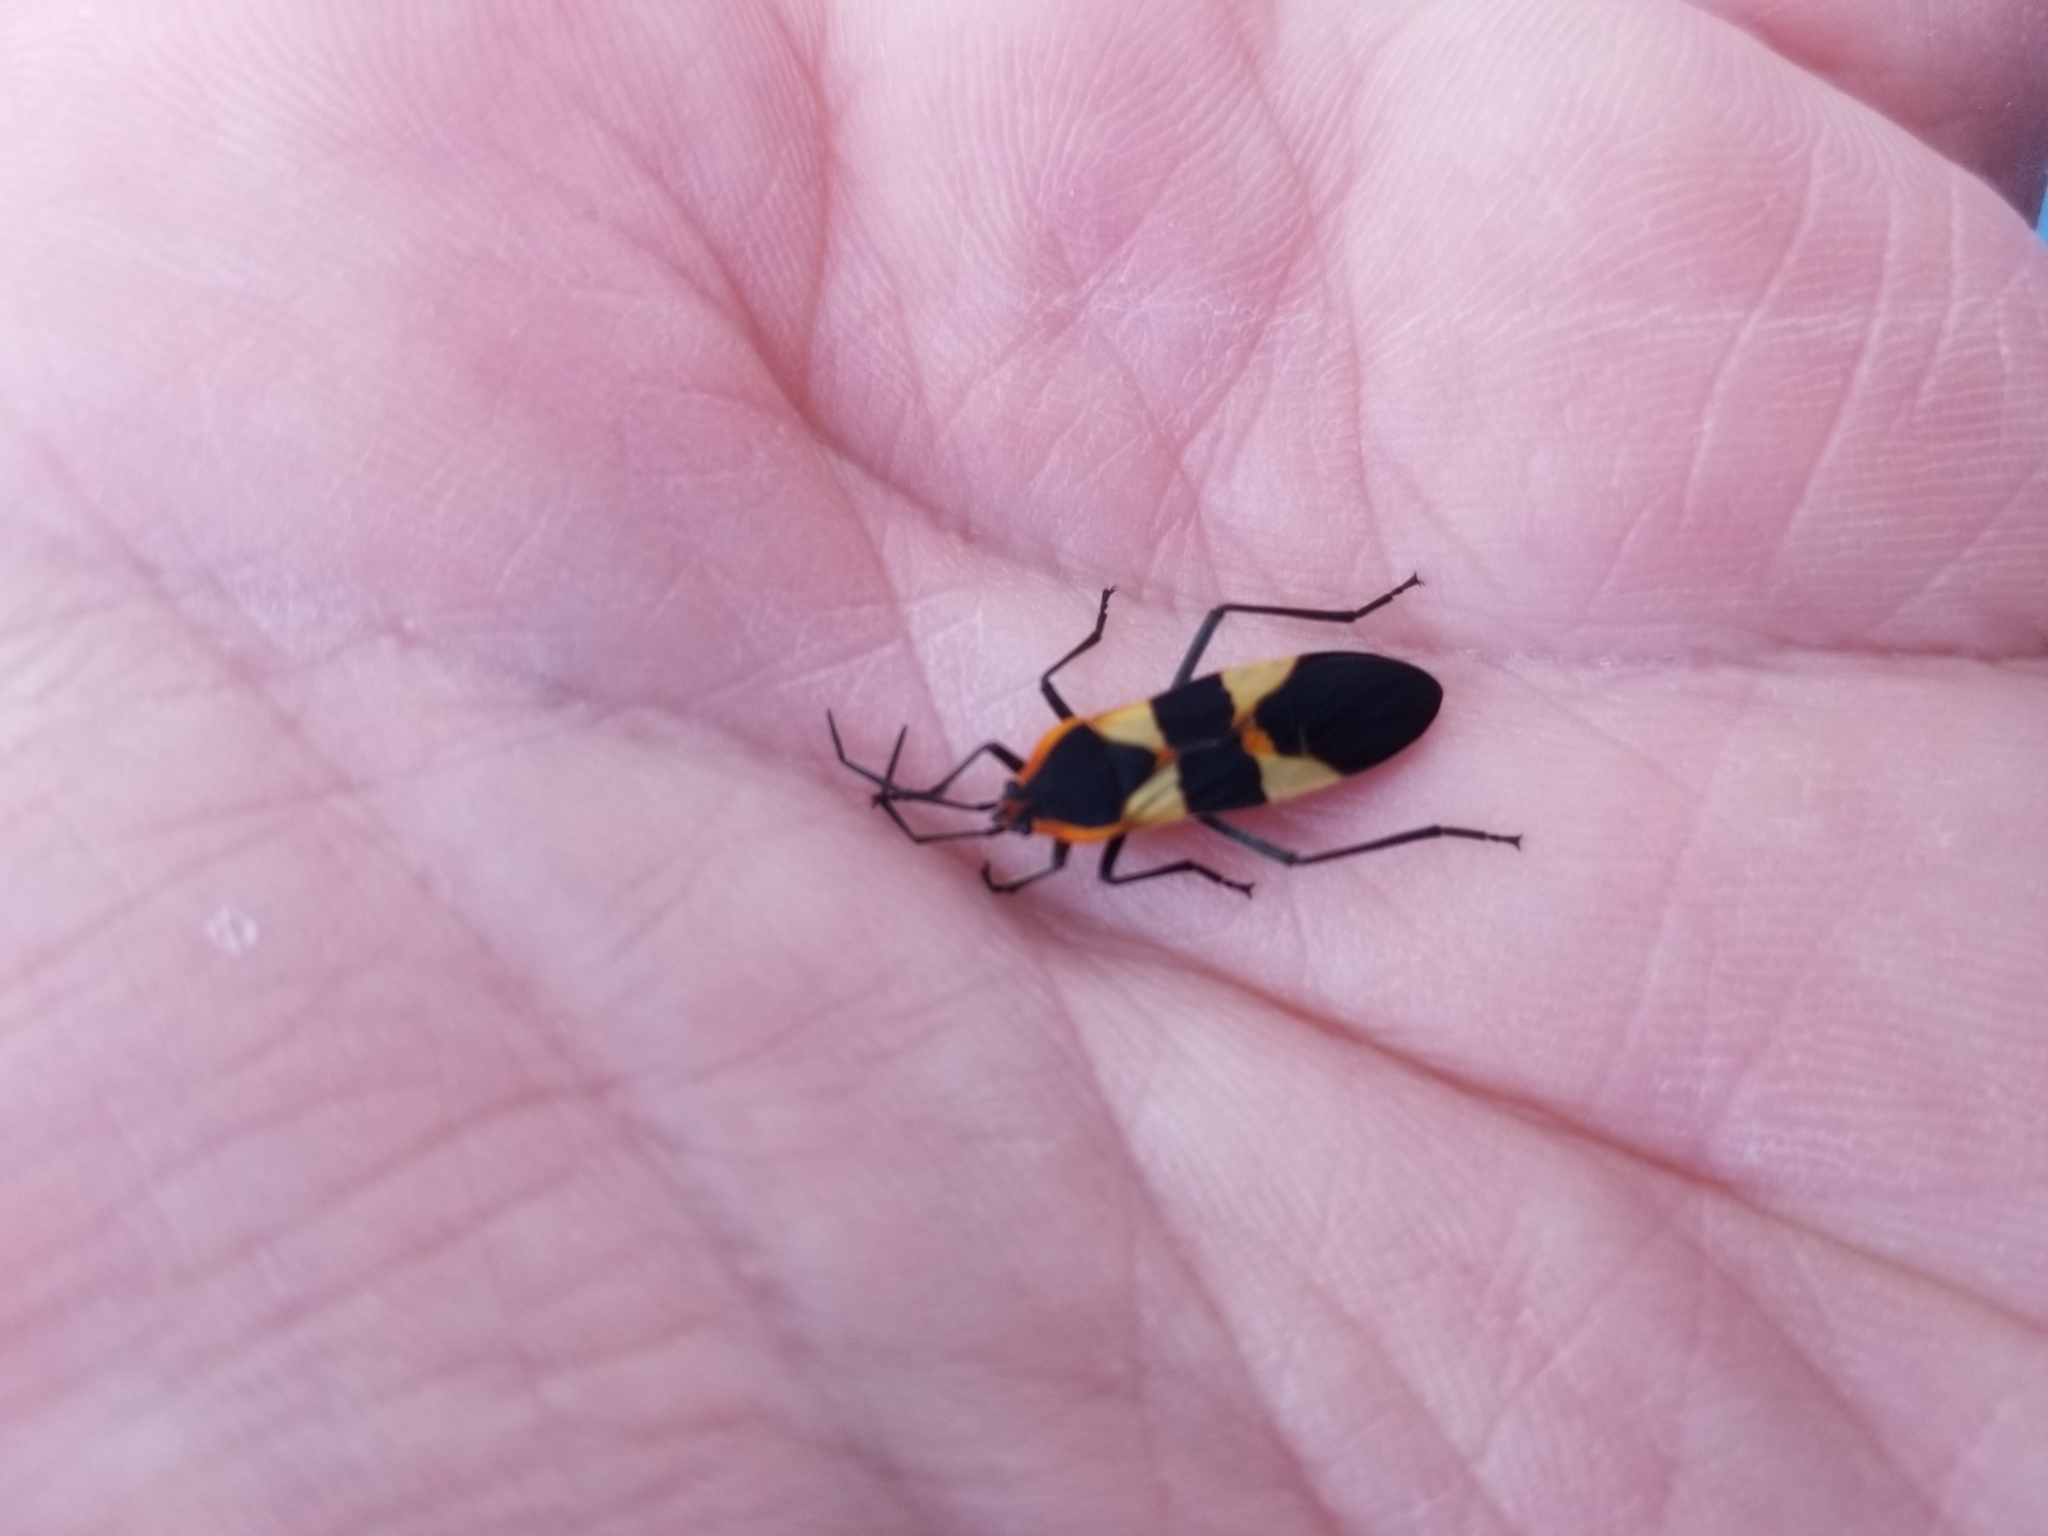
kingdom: Animalia
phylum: Arthropoda
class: Insecta
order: Hemiptera
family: Lygaeidae
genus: Oncopeltus
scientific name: Oncopeltus fasciatus
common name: Large milkweed bug
